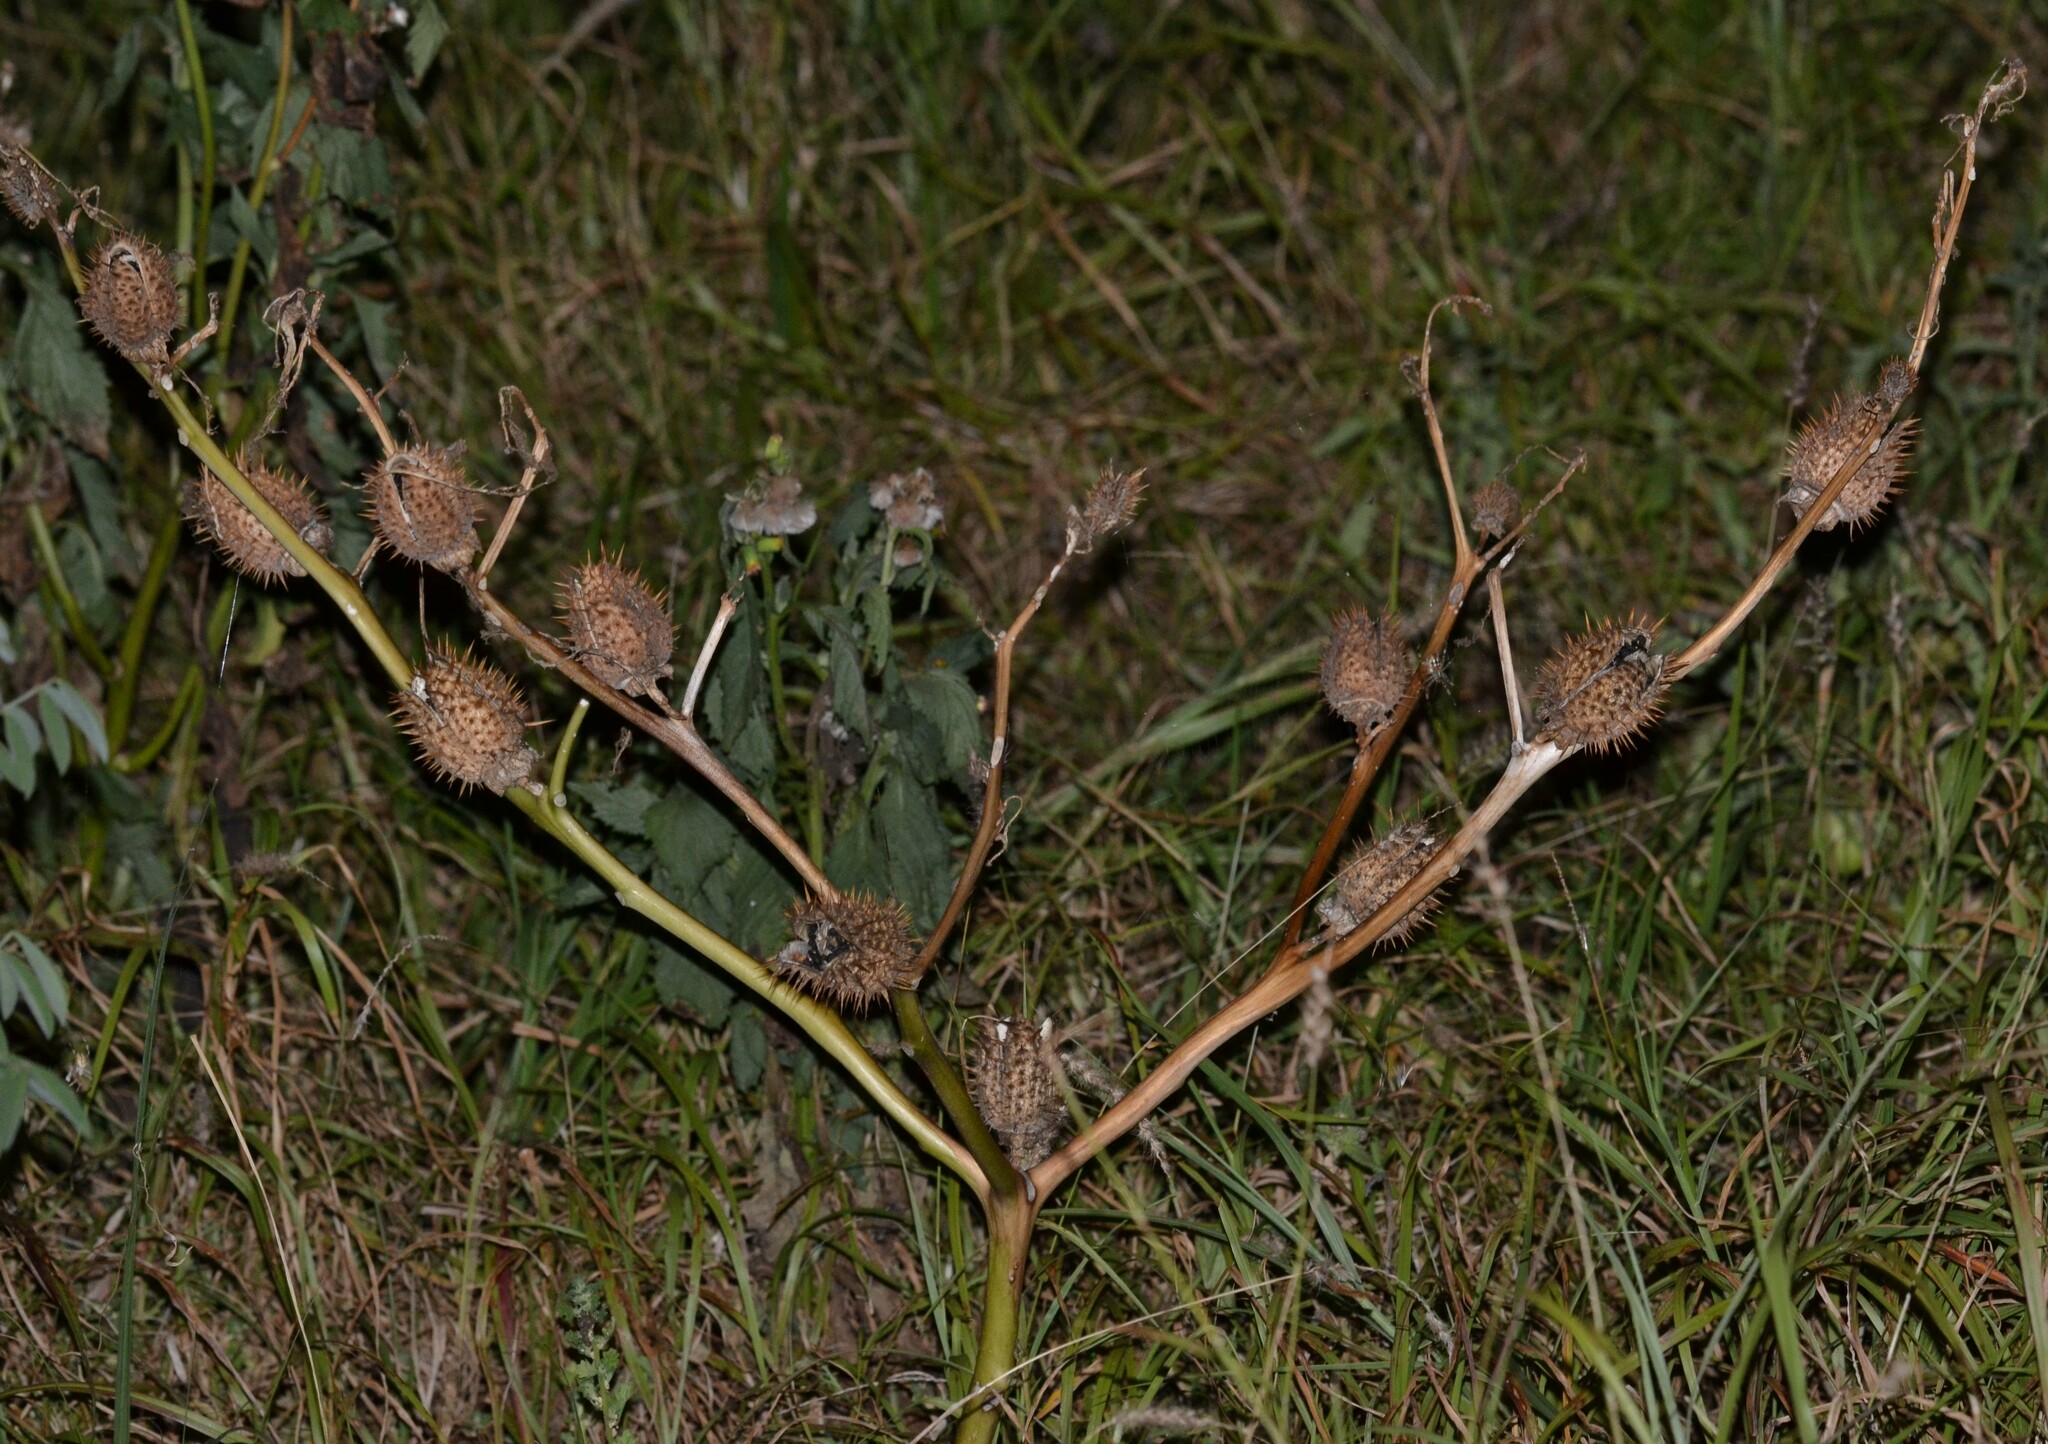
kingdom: Plantae
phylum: Tracheophyta
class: Magnoliopsida
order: Solanales
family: Solanaceae
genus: Datura
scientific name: Datura stramonium
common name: Thorn-apple
